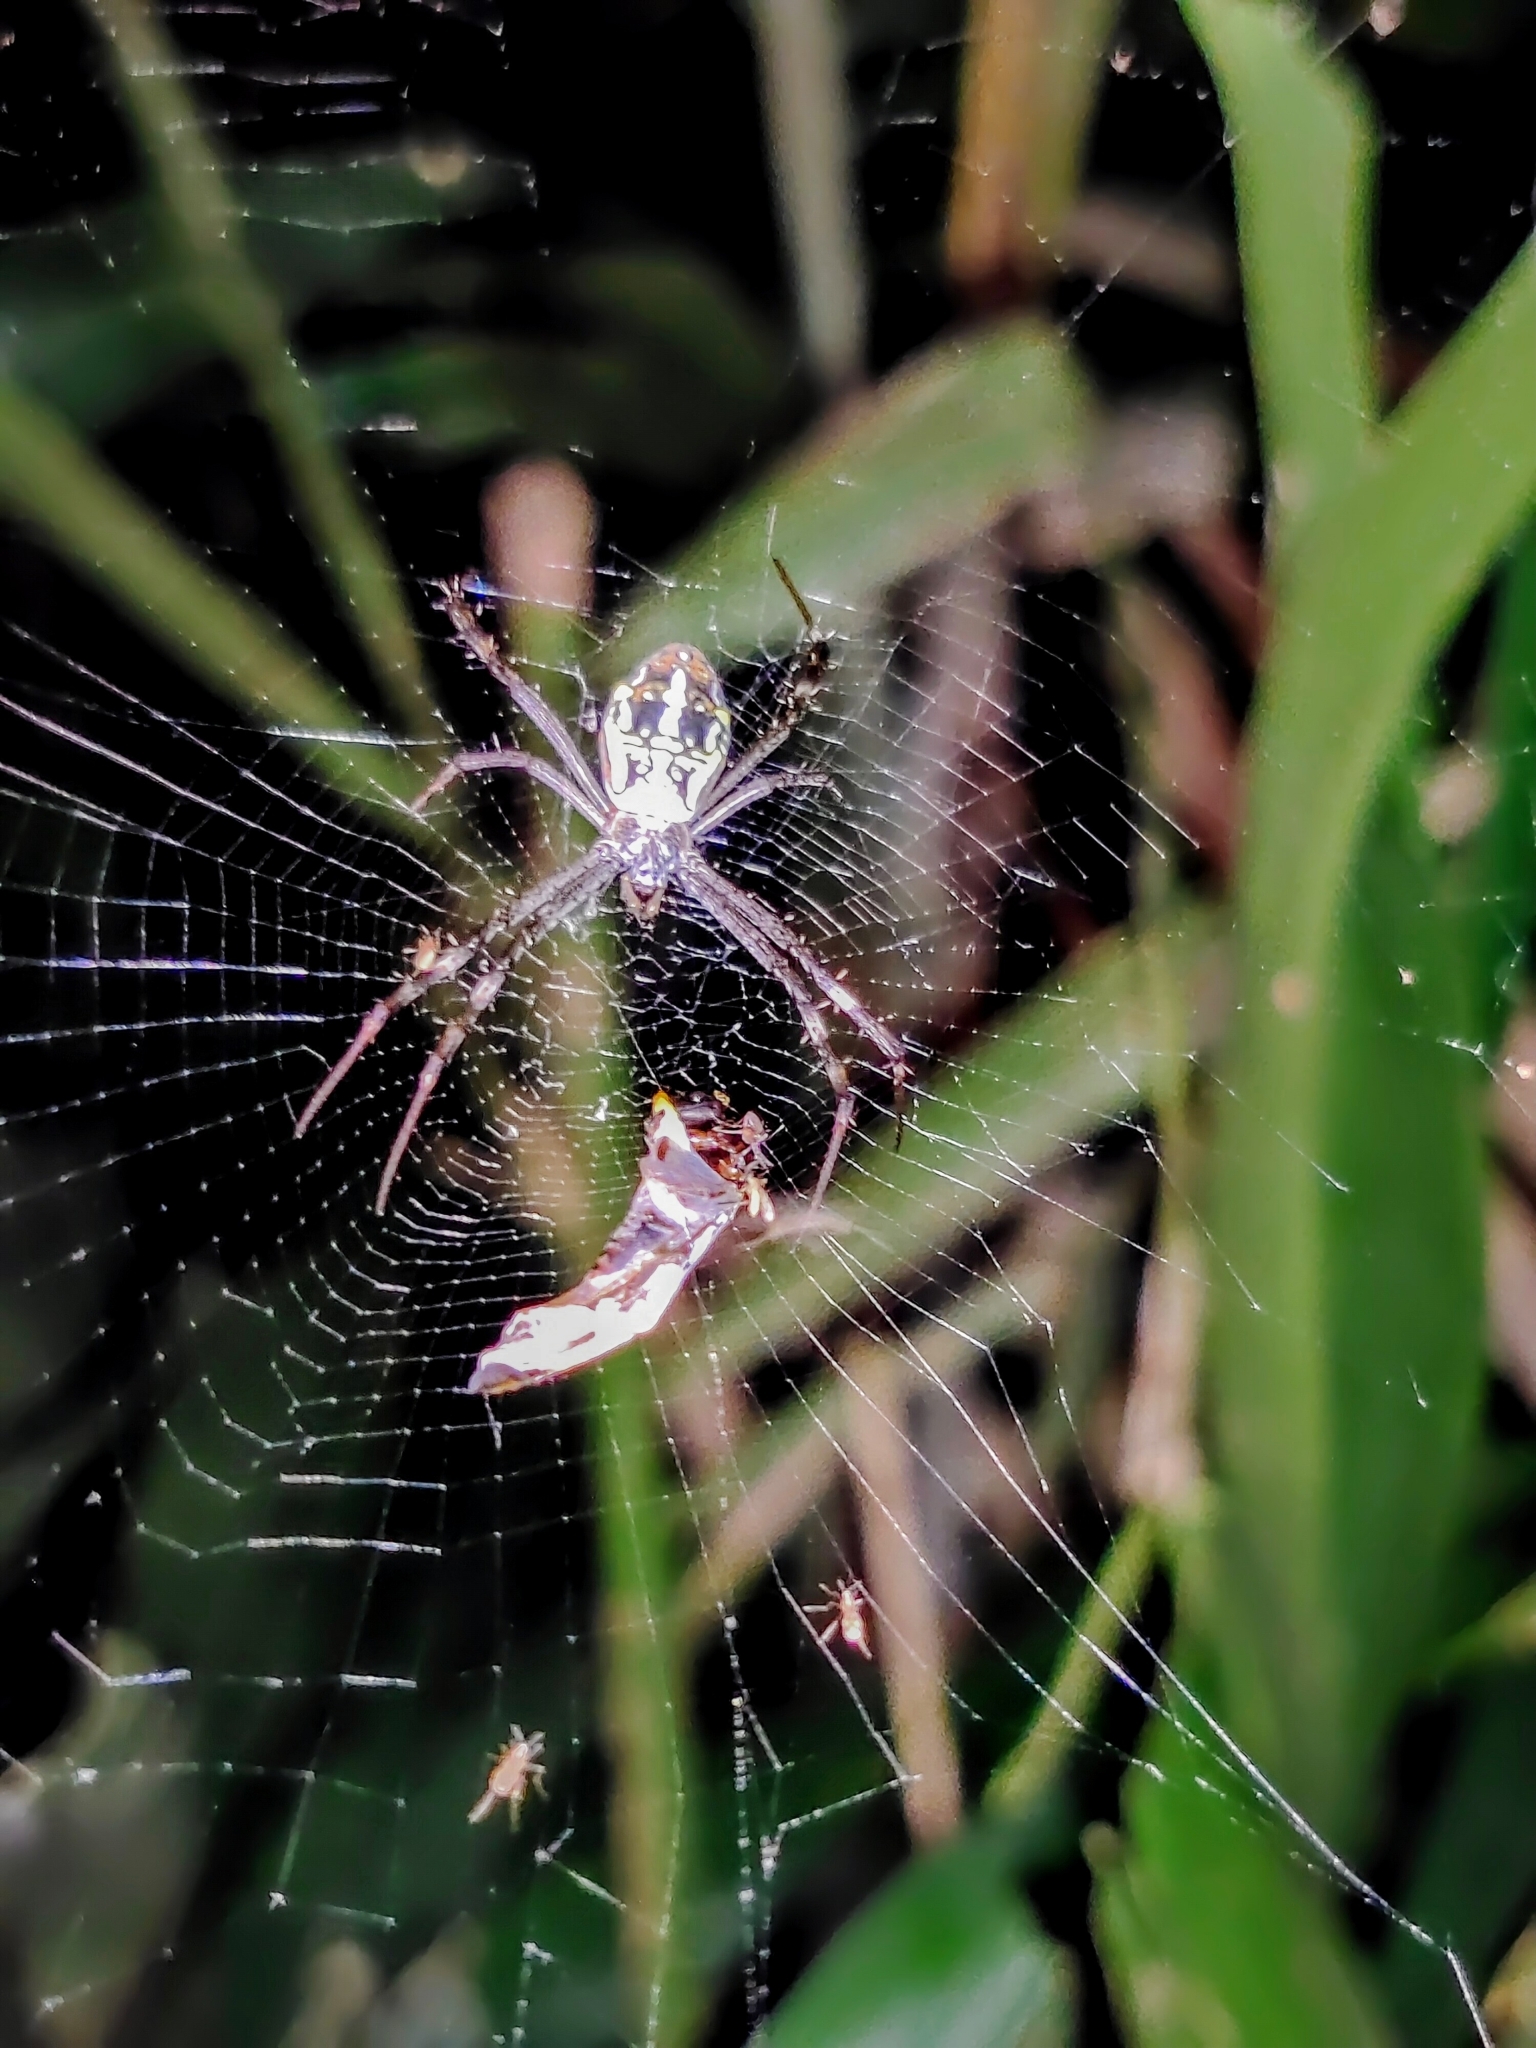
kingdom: Animalia
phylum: Arthropoda
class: Arachnida
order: Araneae
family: Araneidae
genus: Argiope
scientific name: Argiope dang
